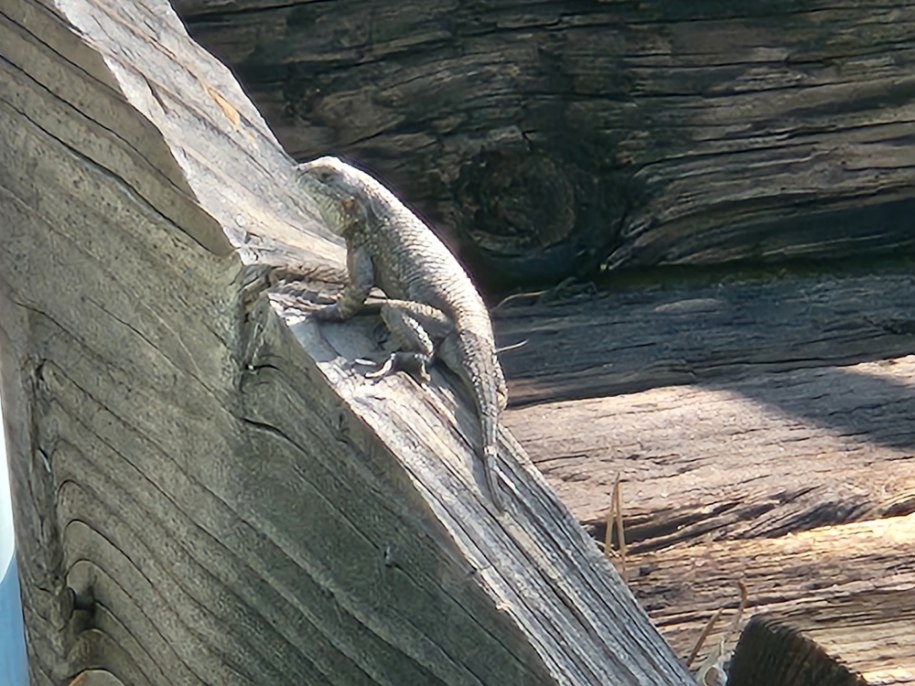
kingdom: Animalia
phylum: Chordata
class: Squamata
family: Phrynosomatidae
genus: Sceloporus
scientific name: Sceloporus occidentalis
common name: Western fence lizard
